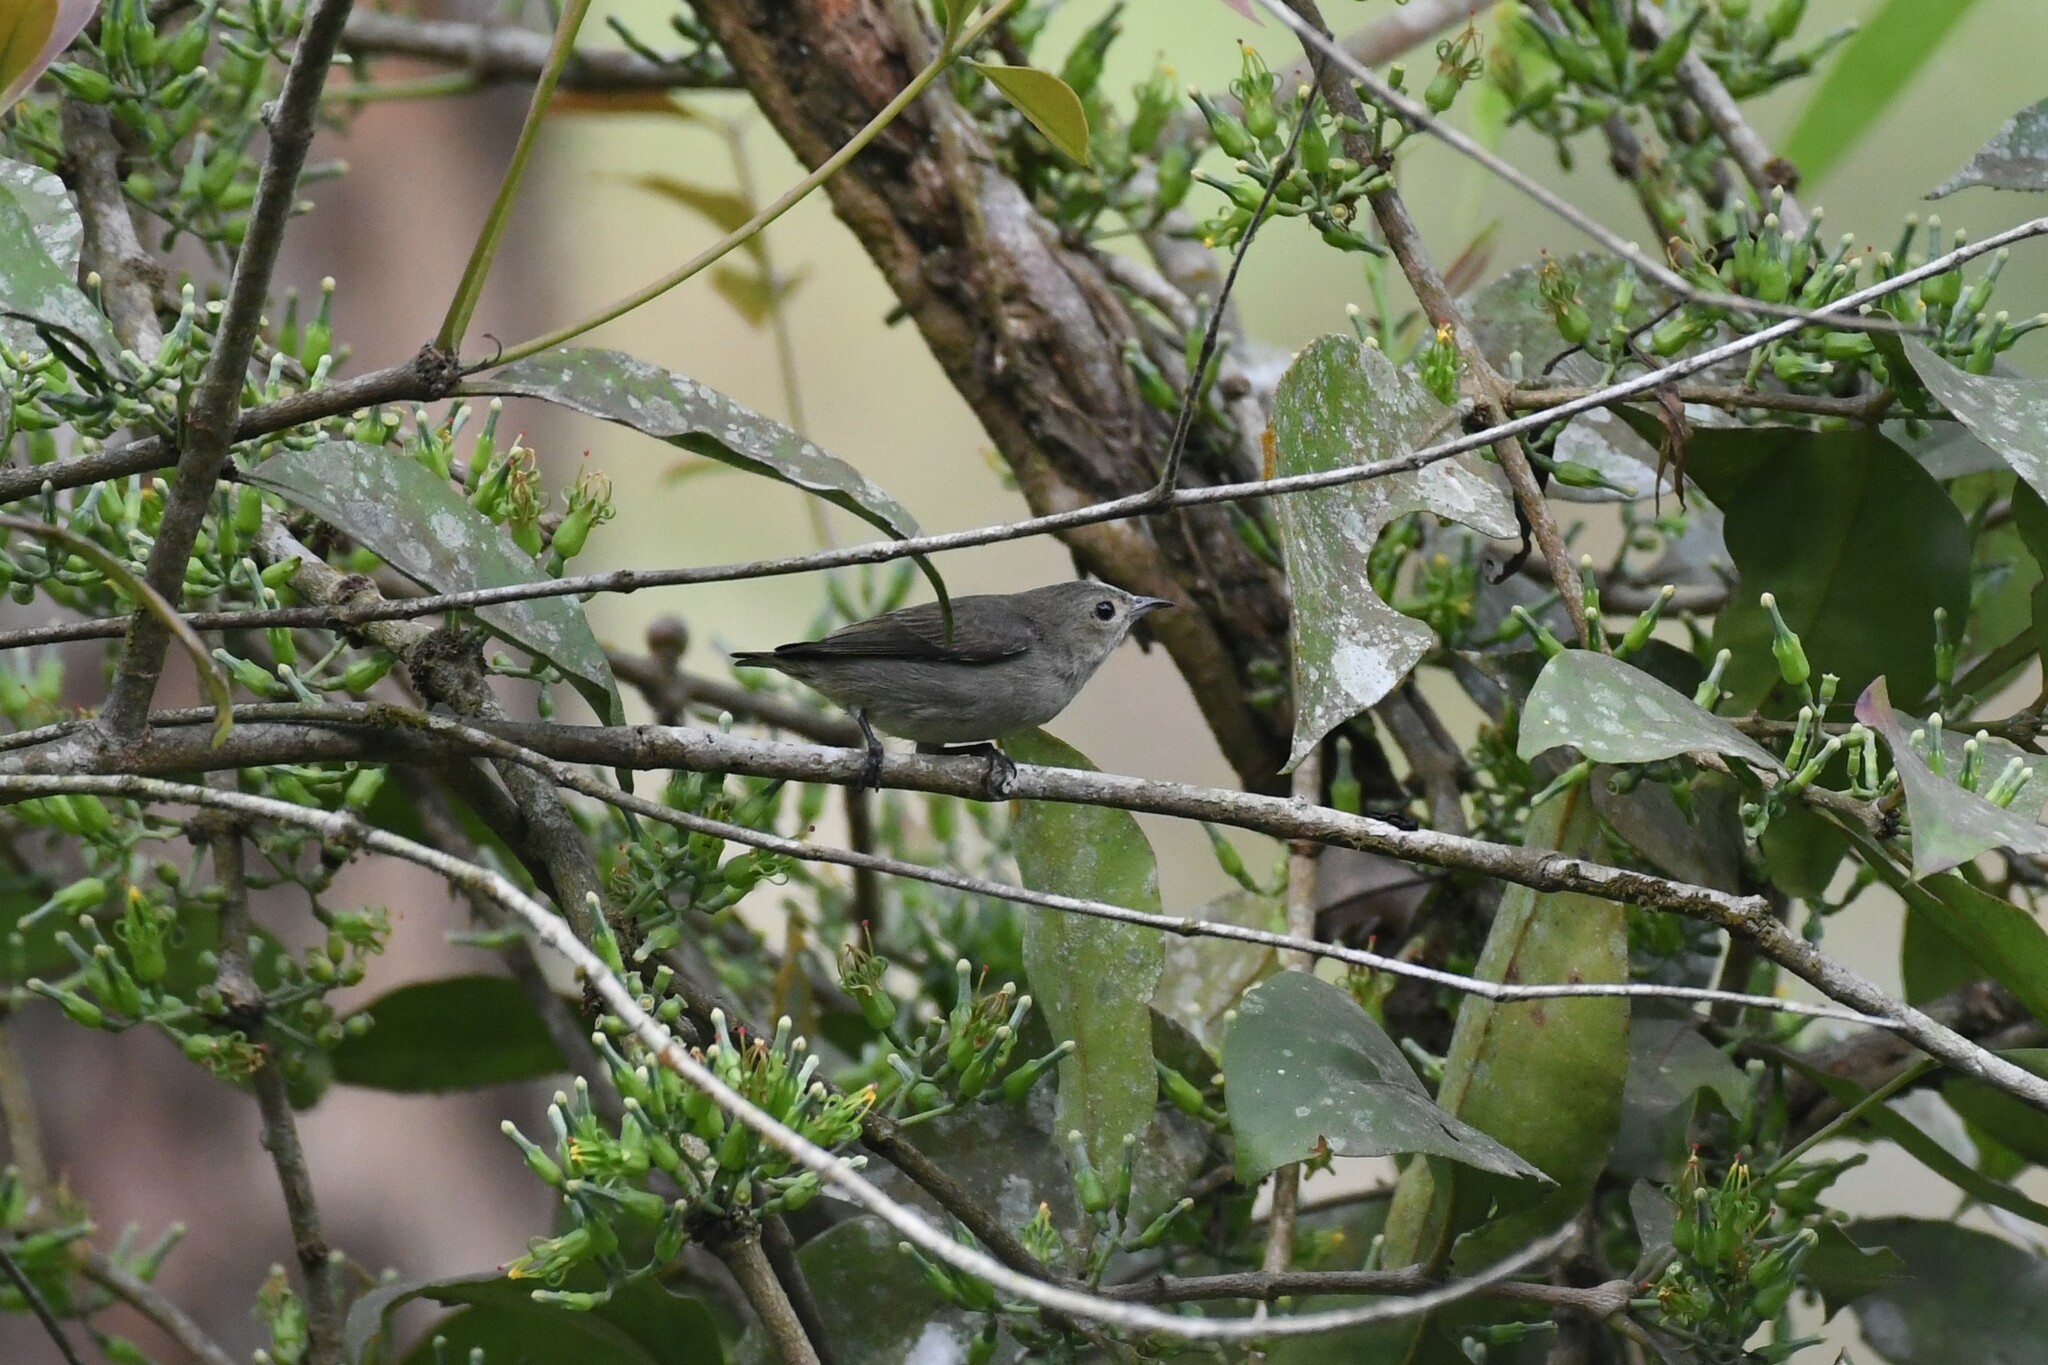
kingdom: Animalia
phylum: Chordata
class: Aves
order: Passeriformes
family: Dicaeidae
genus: Dicaeum
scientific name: Dicaeum minullum
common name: Plain flowerpecker
